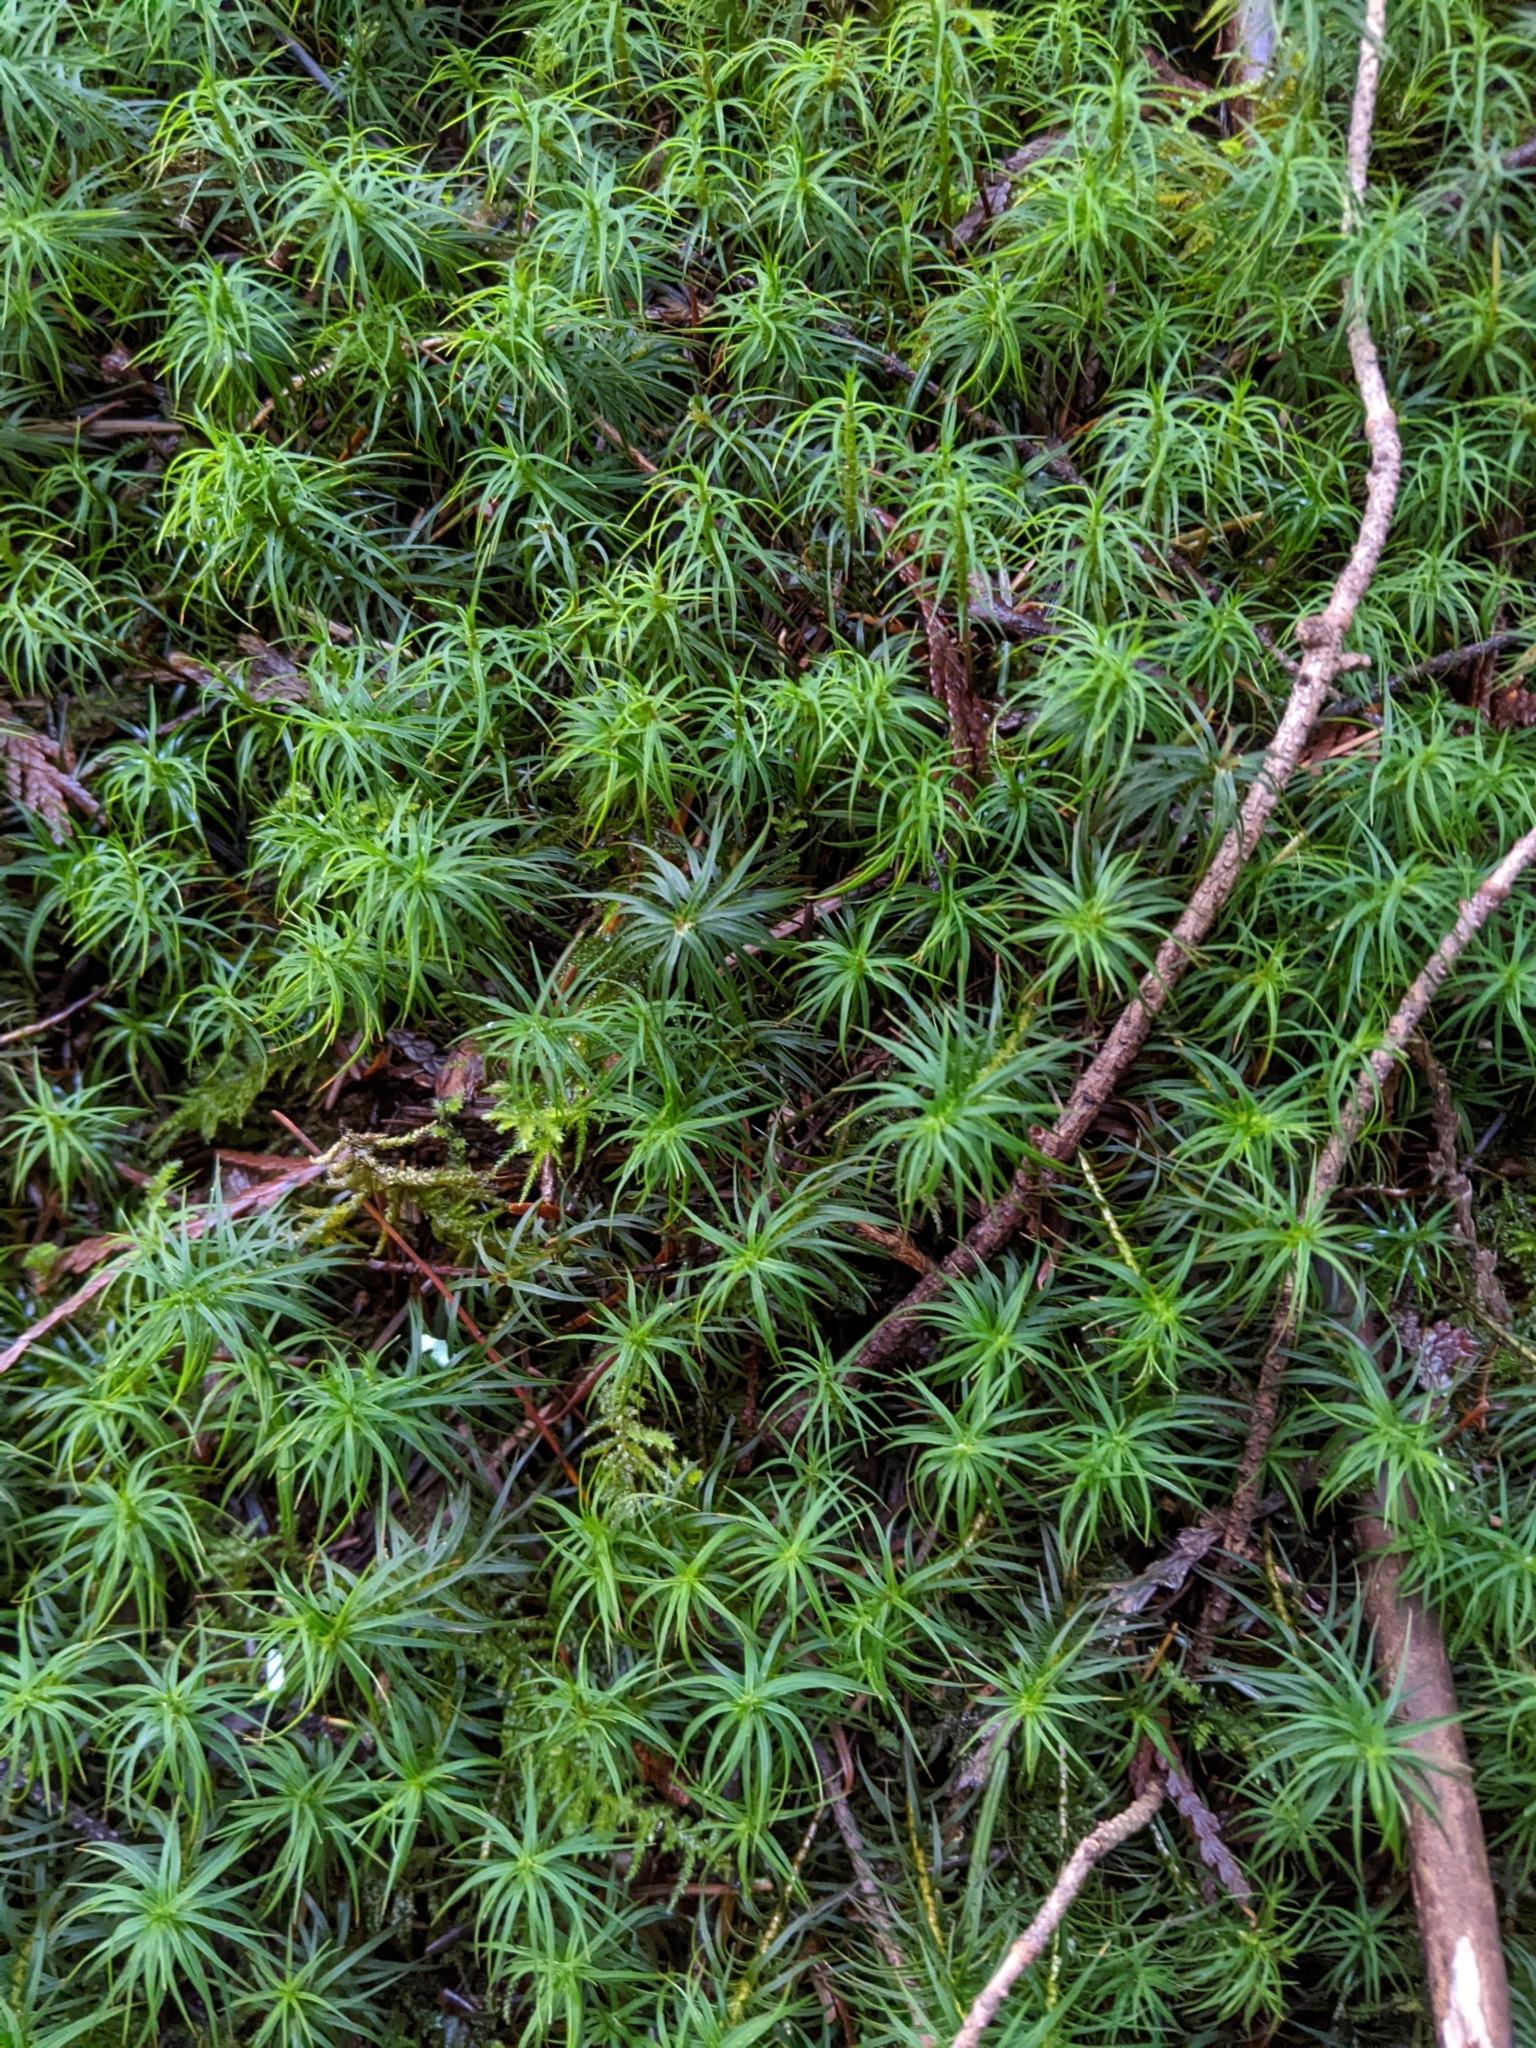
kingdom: Plantae
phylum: Bryophyta
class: Polytrichopsida
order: Polytrichales
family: Polytrichaceae
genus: Polytrichastrum
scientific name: Polytrichastrum alpinum
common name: Alpine haircap
